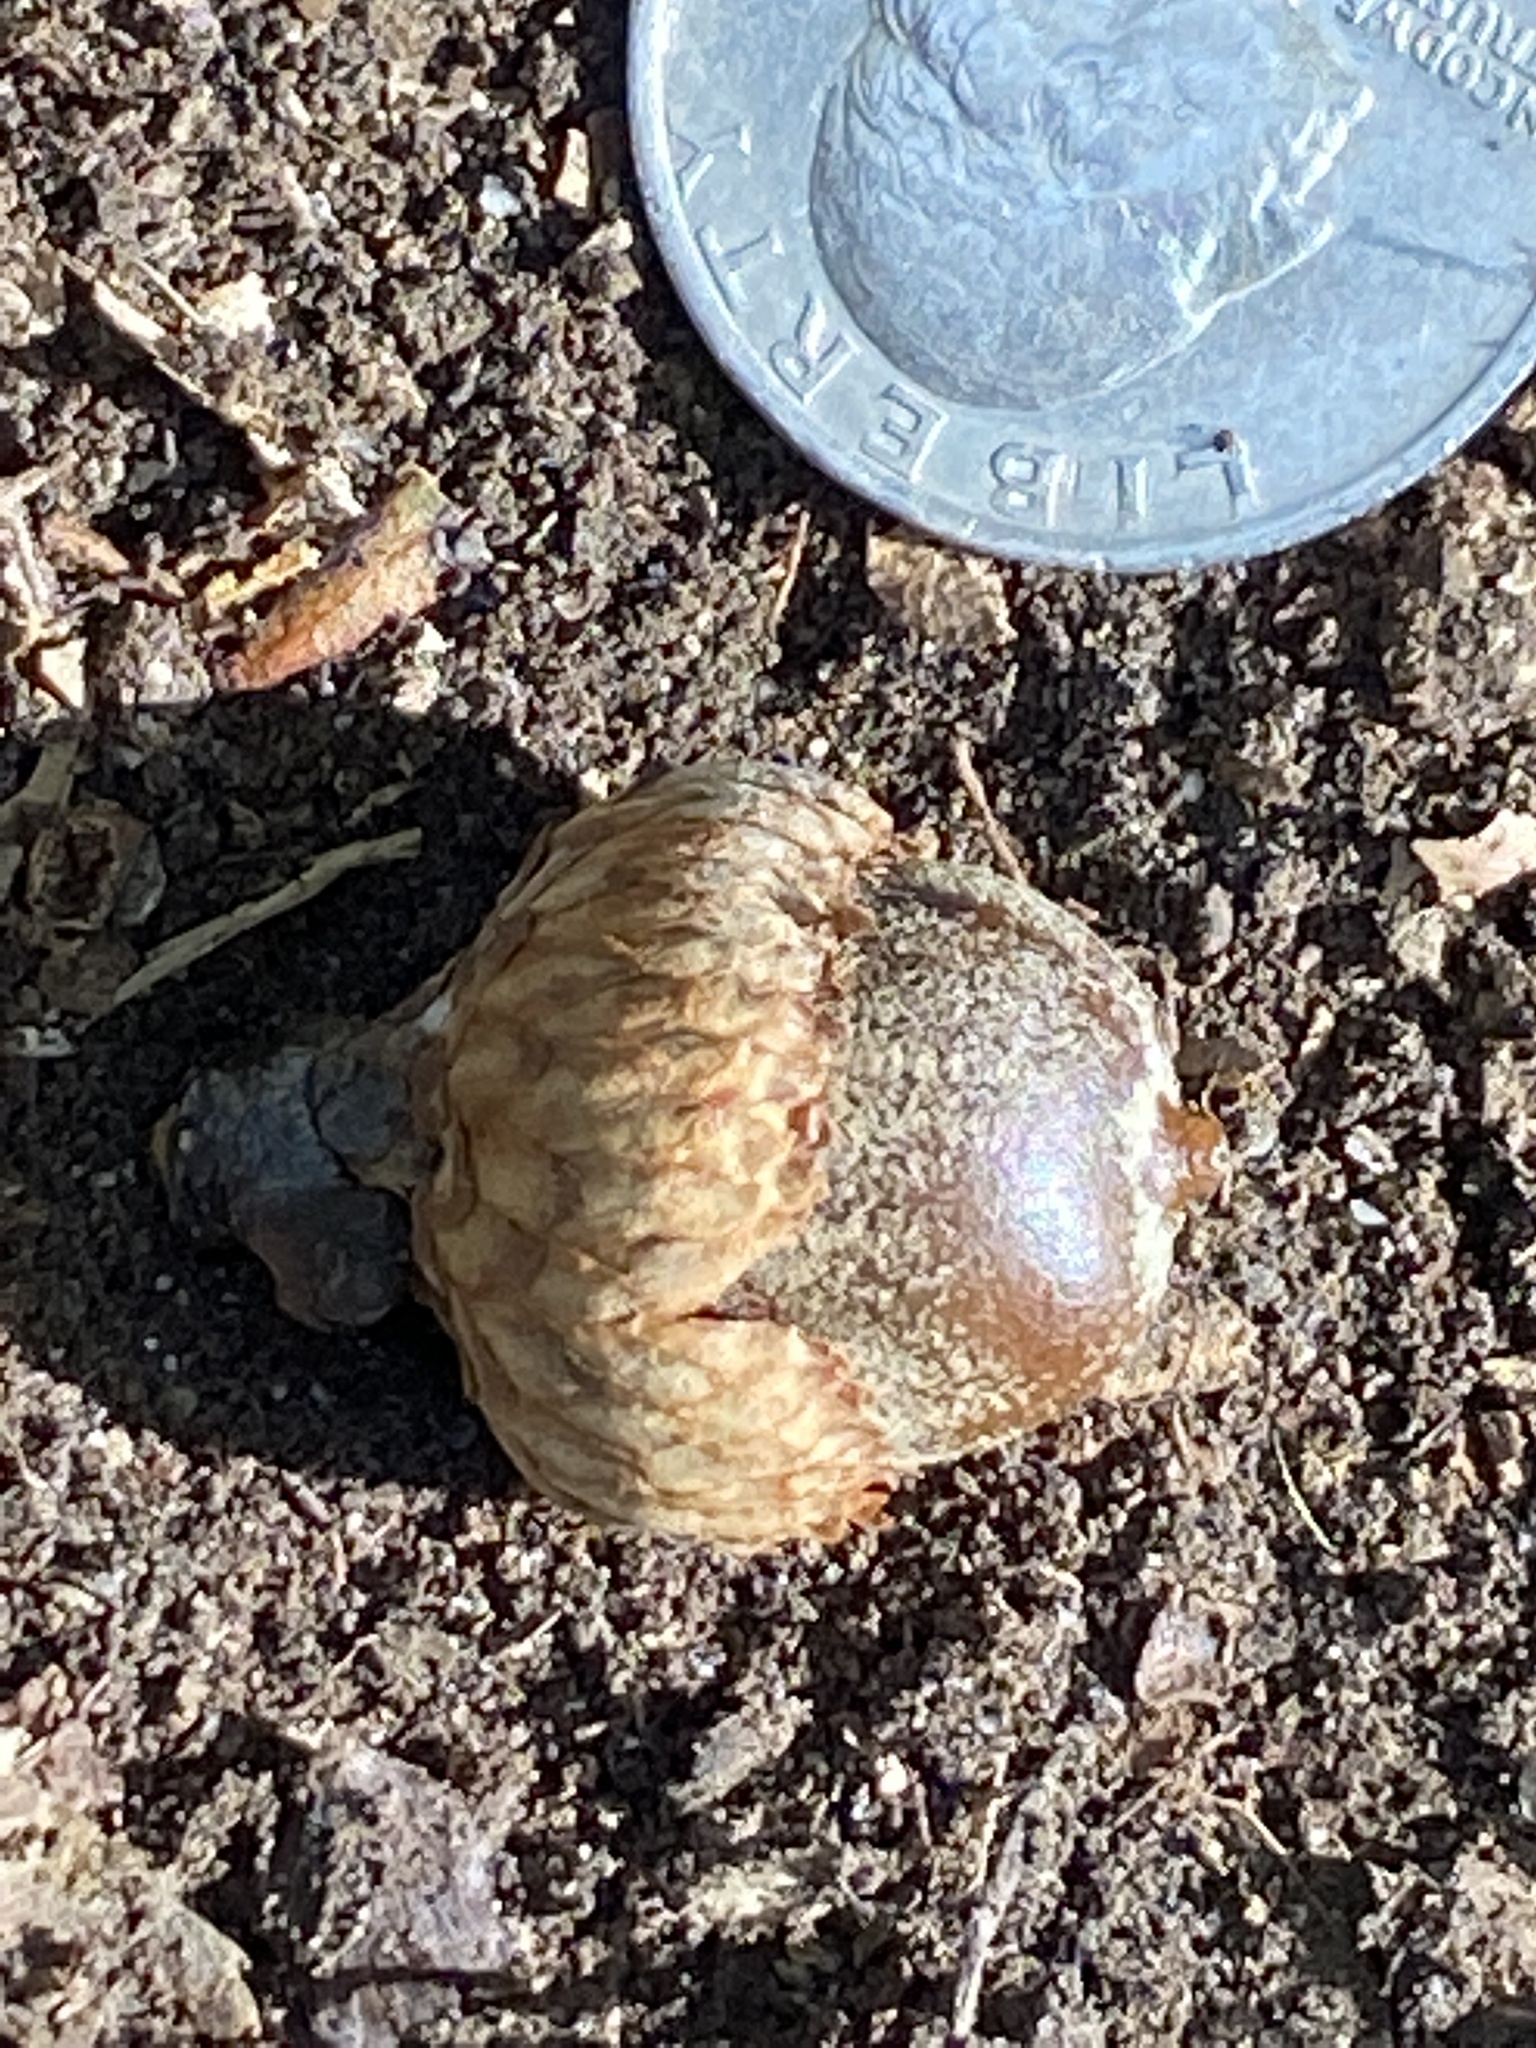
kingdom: Plantae
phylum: Tracheophyta
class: Magnoliopsida
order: Fagales
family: Fagaceae
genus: Quercus
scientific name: Quercus velutina
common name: Black oak
